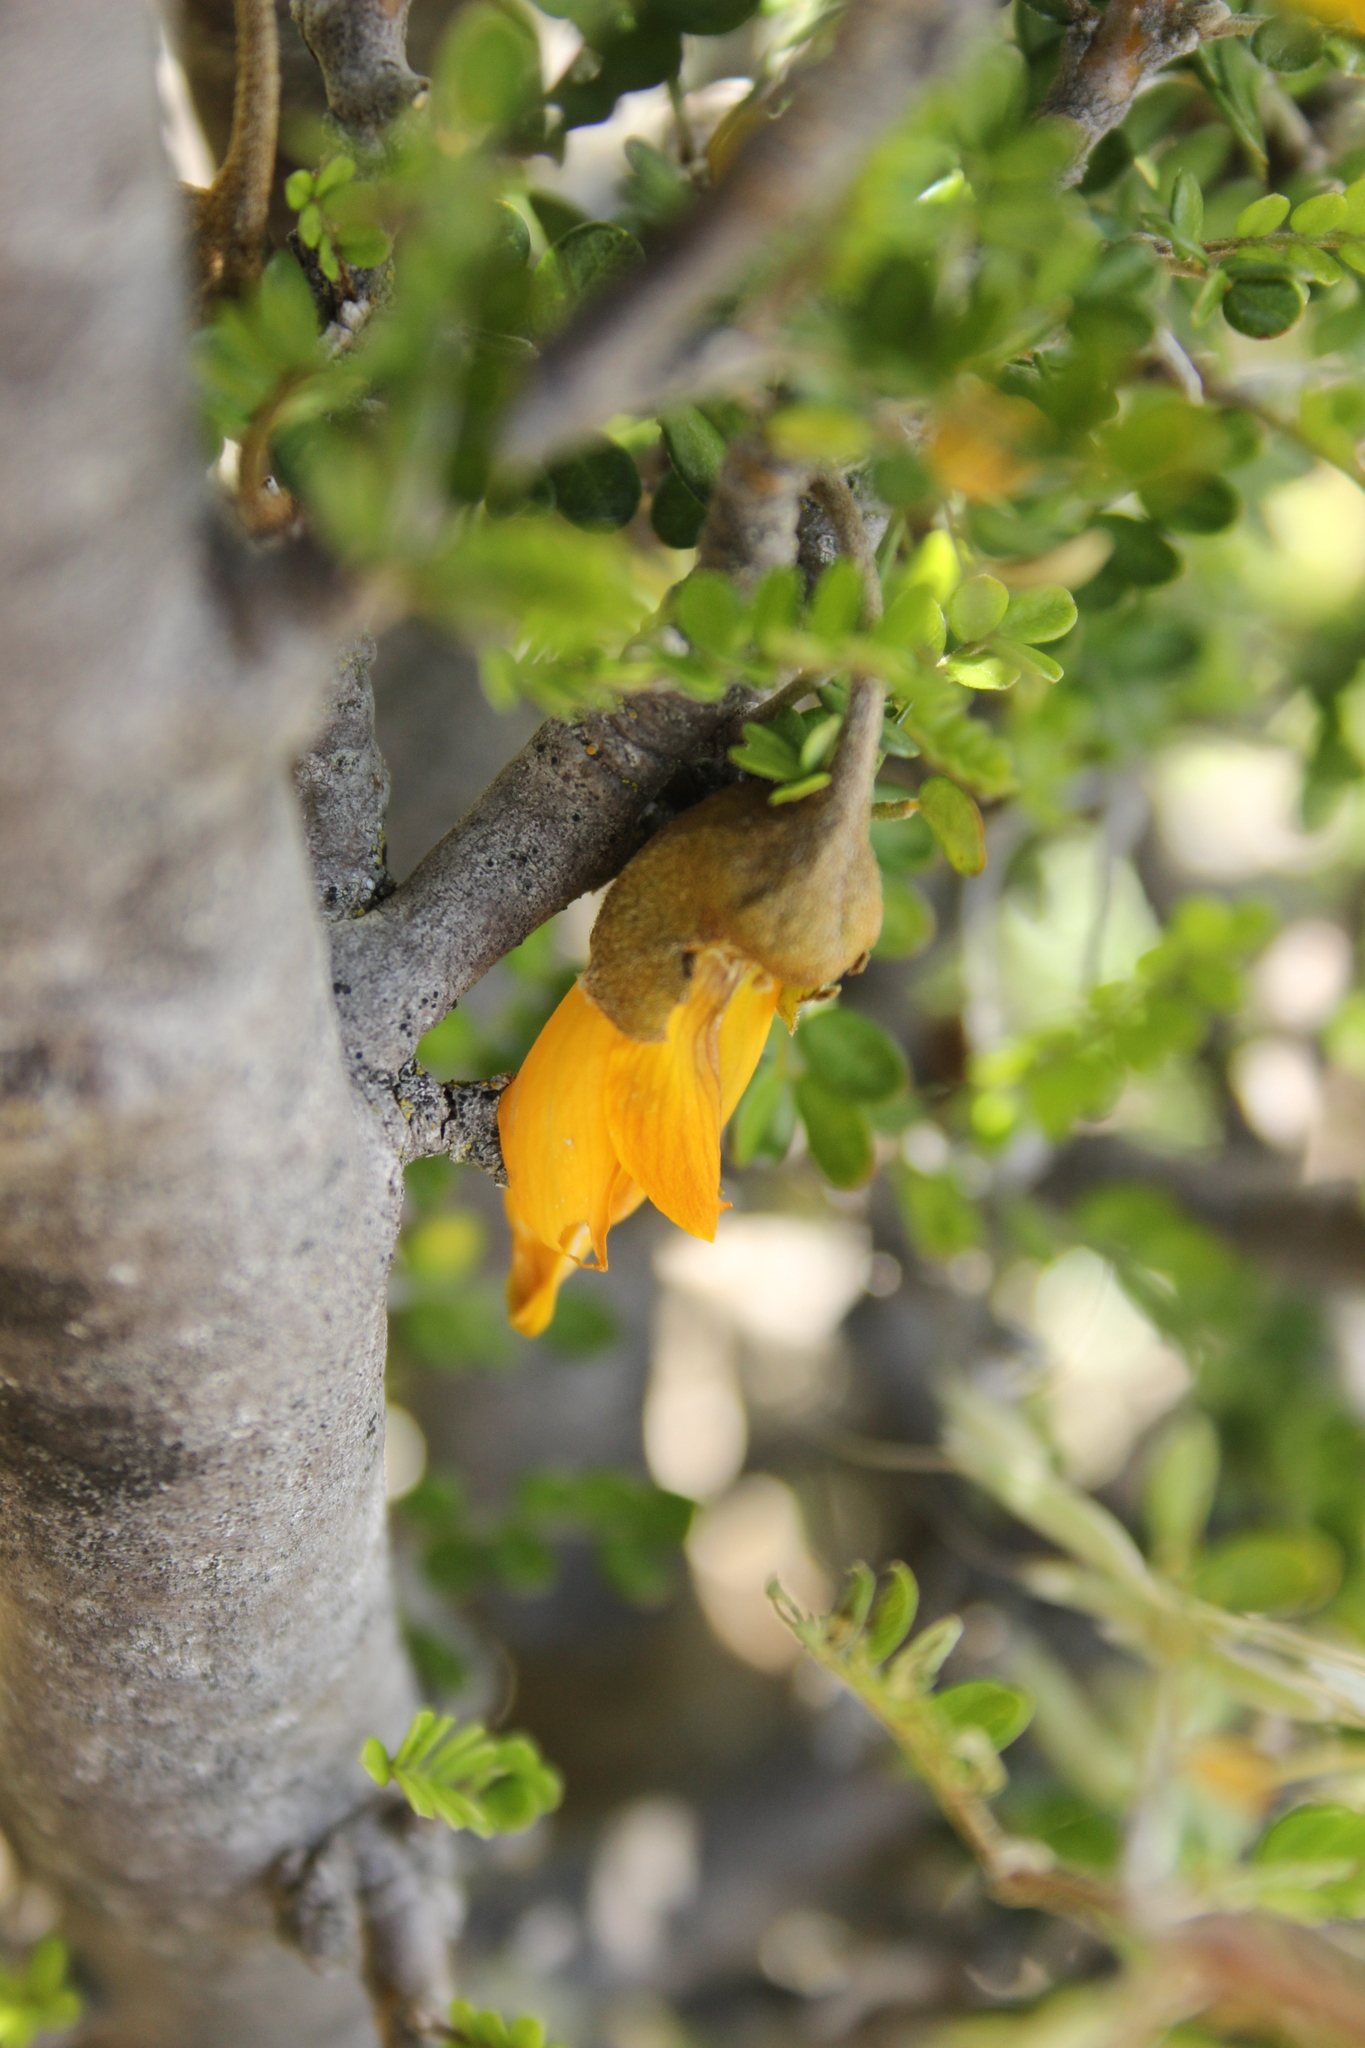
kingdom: Plantae
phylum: Tracheophyta
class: Magnoliopsida
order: Fabales
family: Fabaceae
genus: Sophora
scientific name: Sophora prostrata
